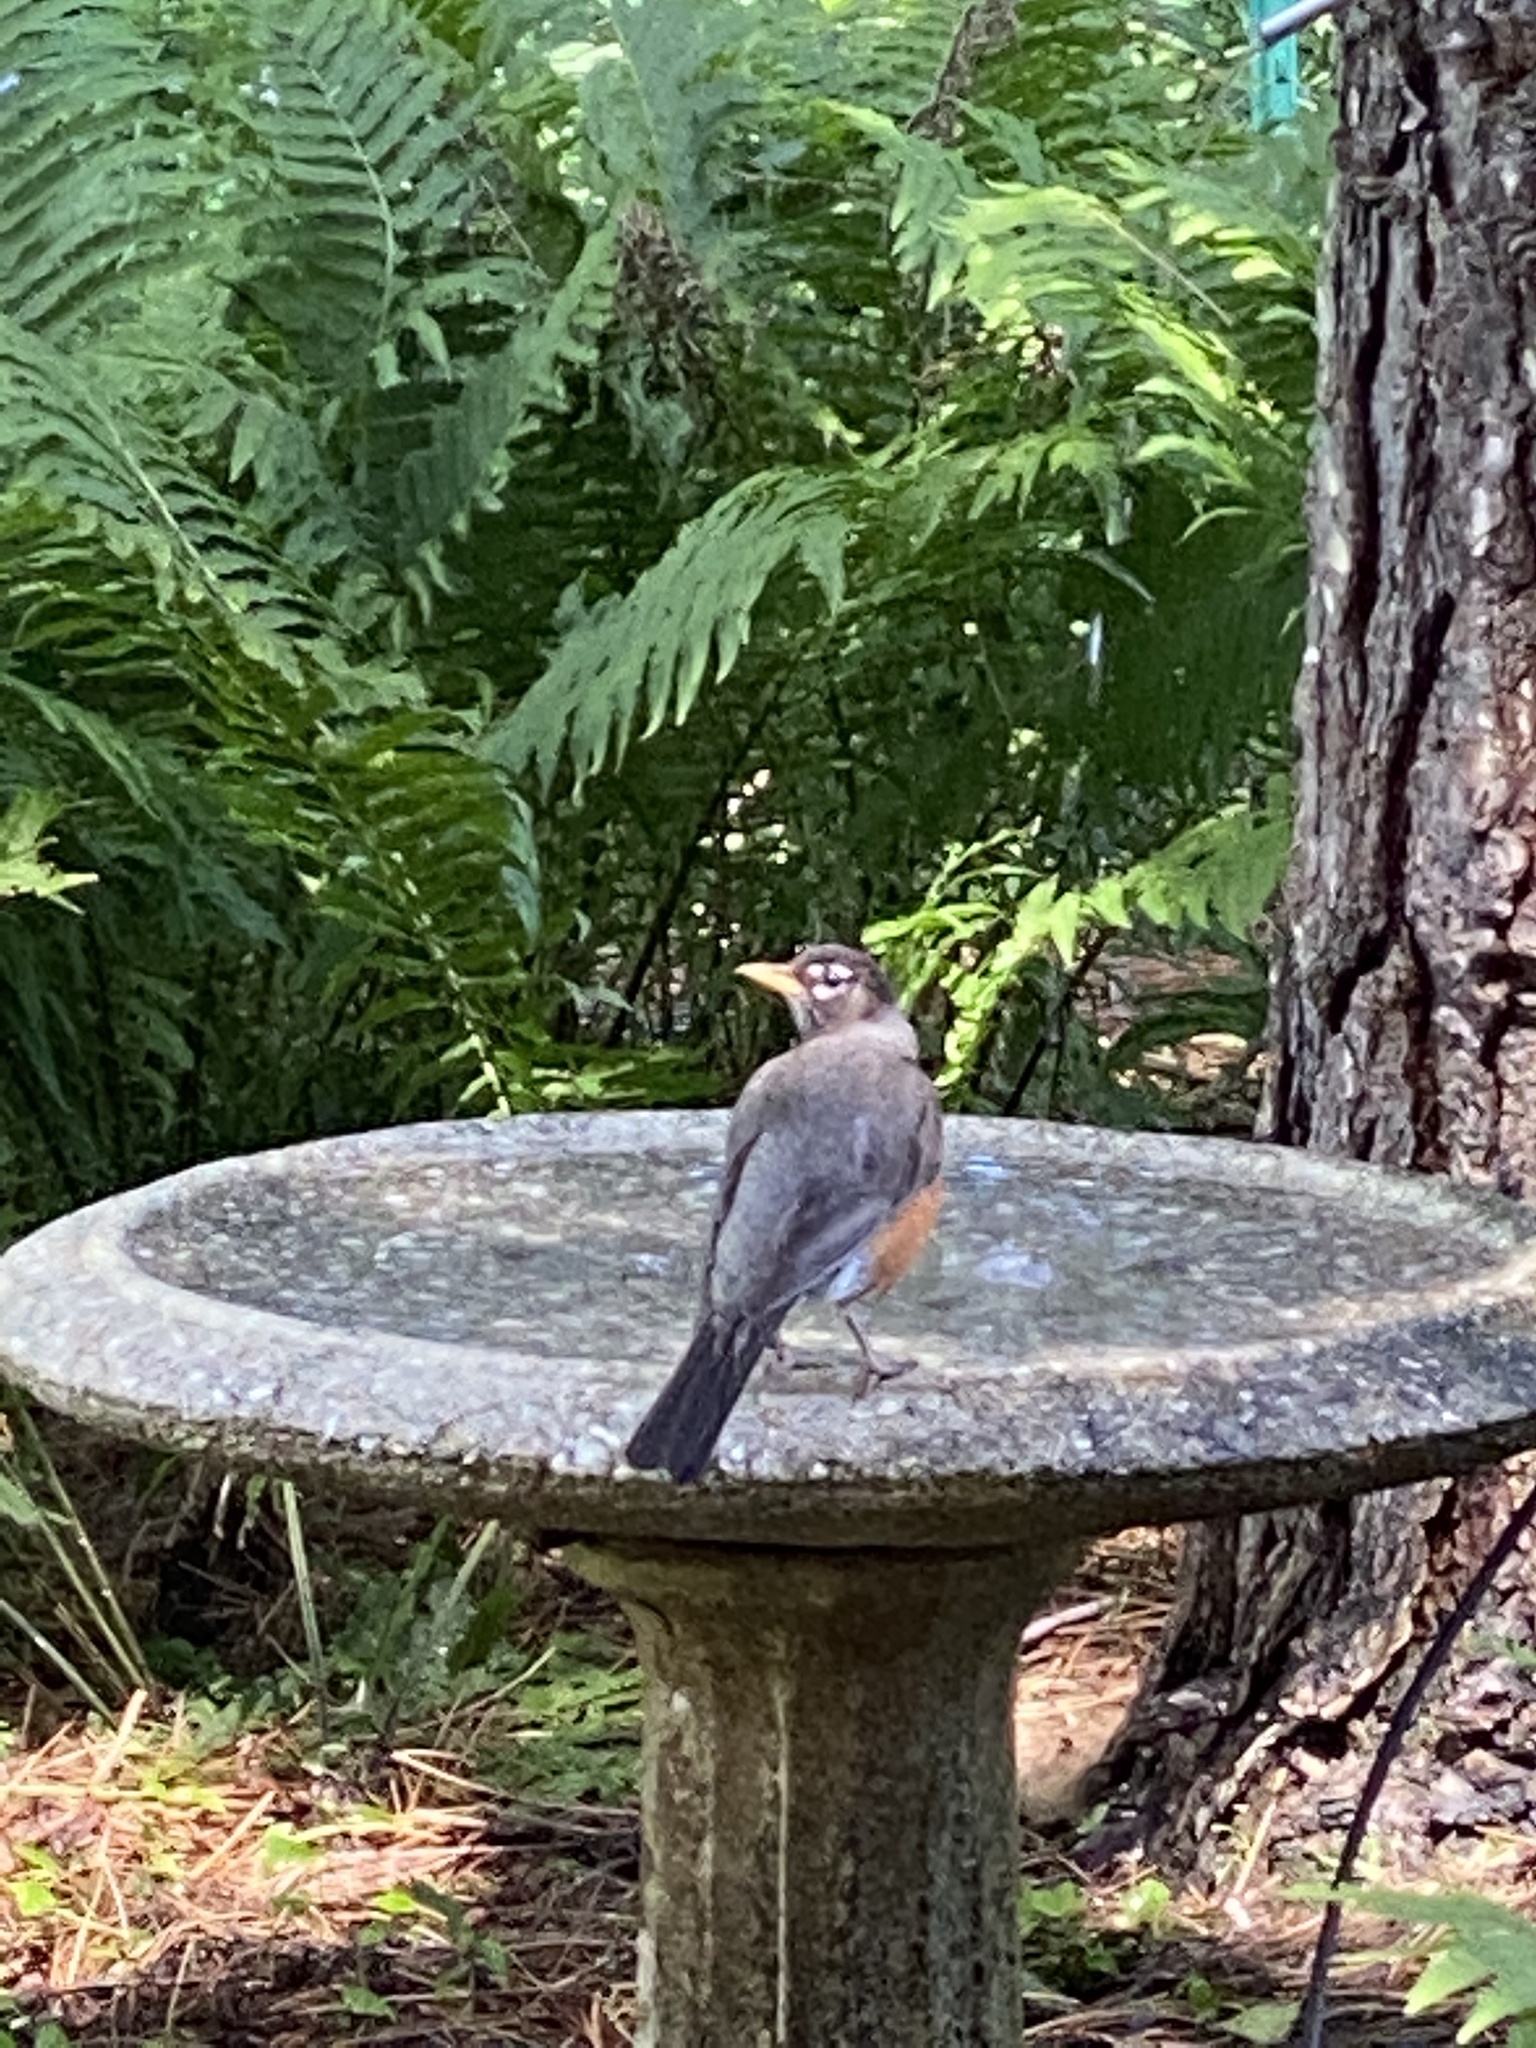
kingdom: Animalia
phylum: Chordata
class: Aves
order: Passeriformes
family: Turdidae
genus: Turdus
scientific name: Turdus migratorius
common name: American robin
